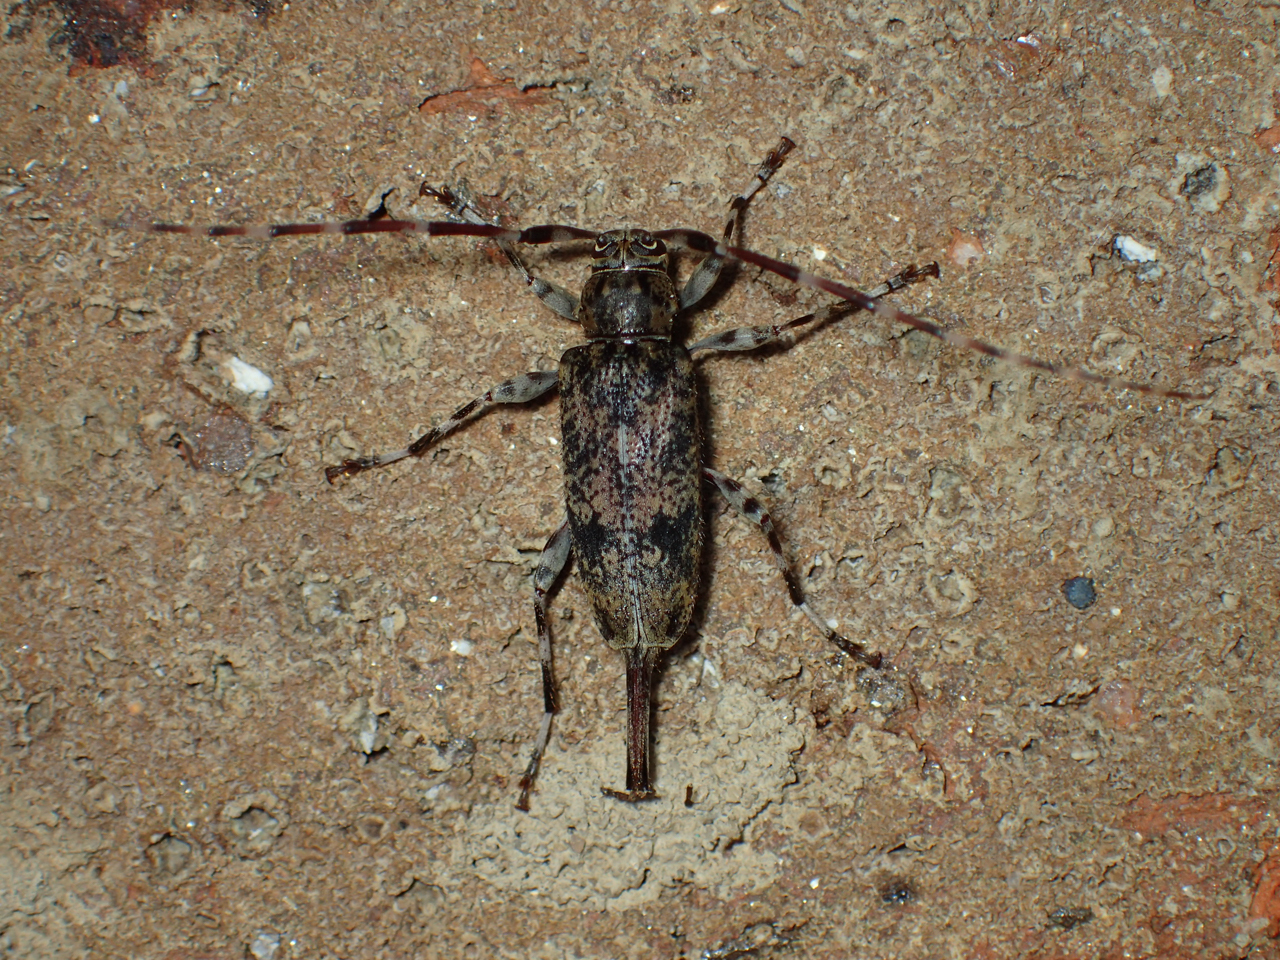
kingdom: Animalia
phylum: Arthropoda
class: Insecta
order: Coleoptera
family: Cerambycidae
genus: Graphisurus
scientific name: Graphisurus fasciatus
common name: Banded graphisurus
